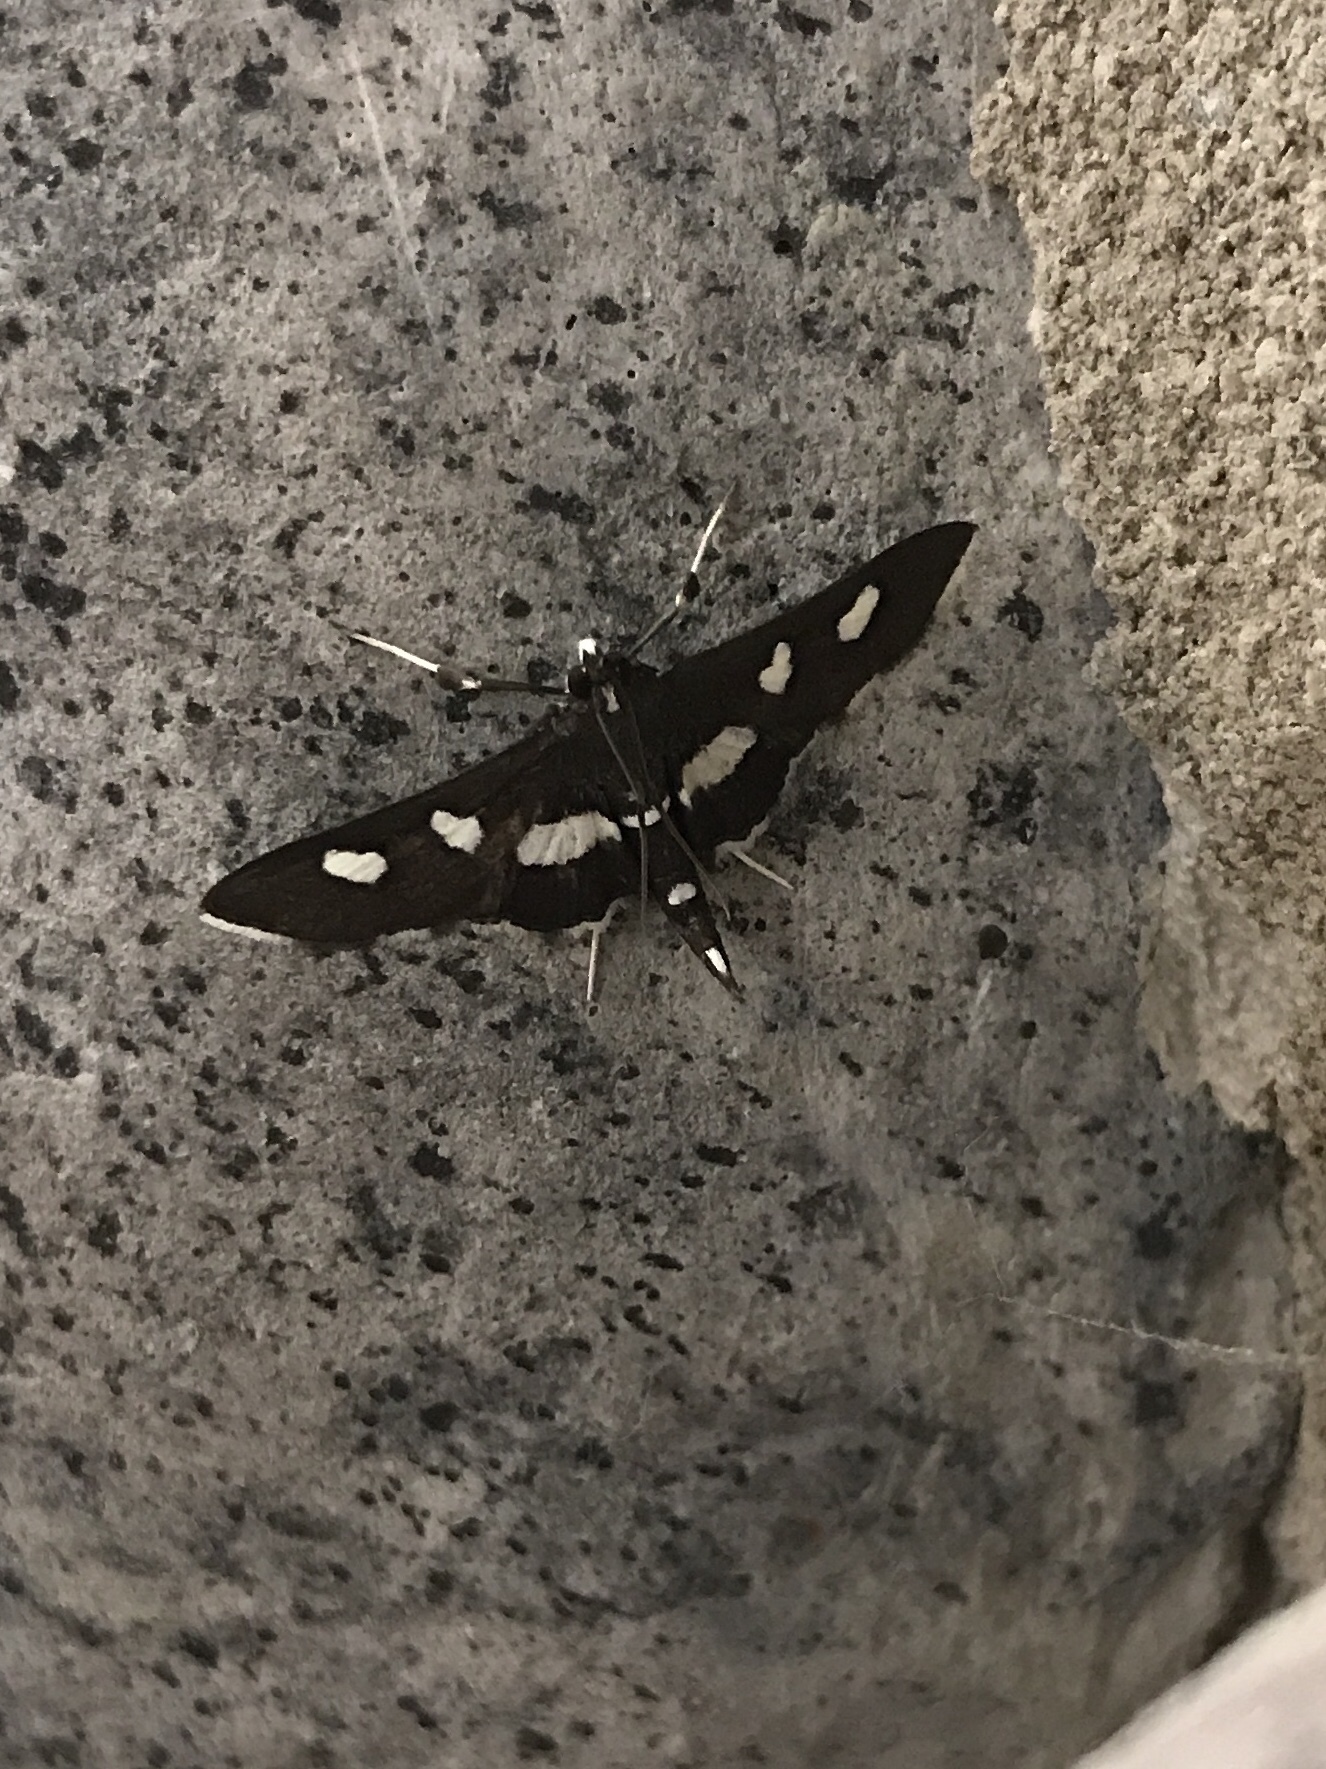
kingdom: Animalia
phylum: Arthropoda
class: Insecta
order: Lepidoptera
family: Crambidae
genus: Desmia
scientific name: Desmia
